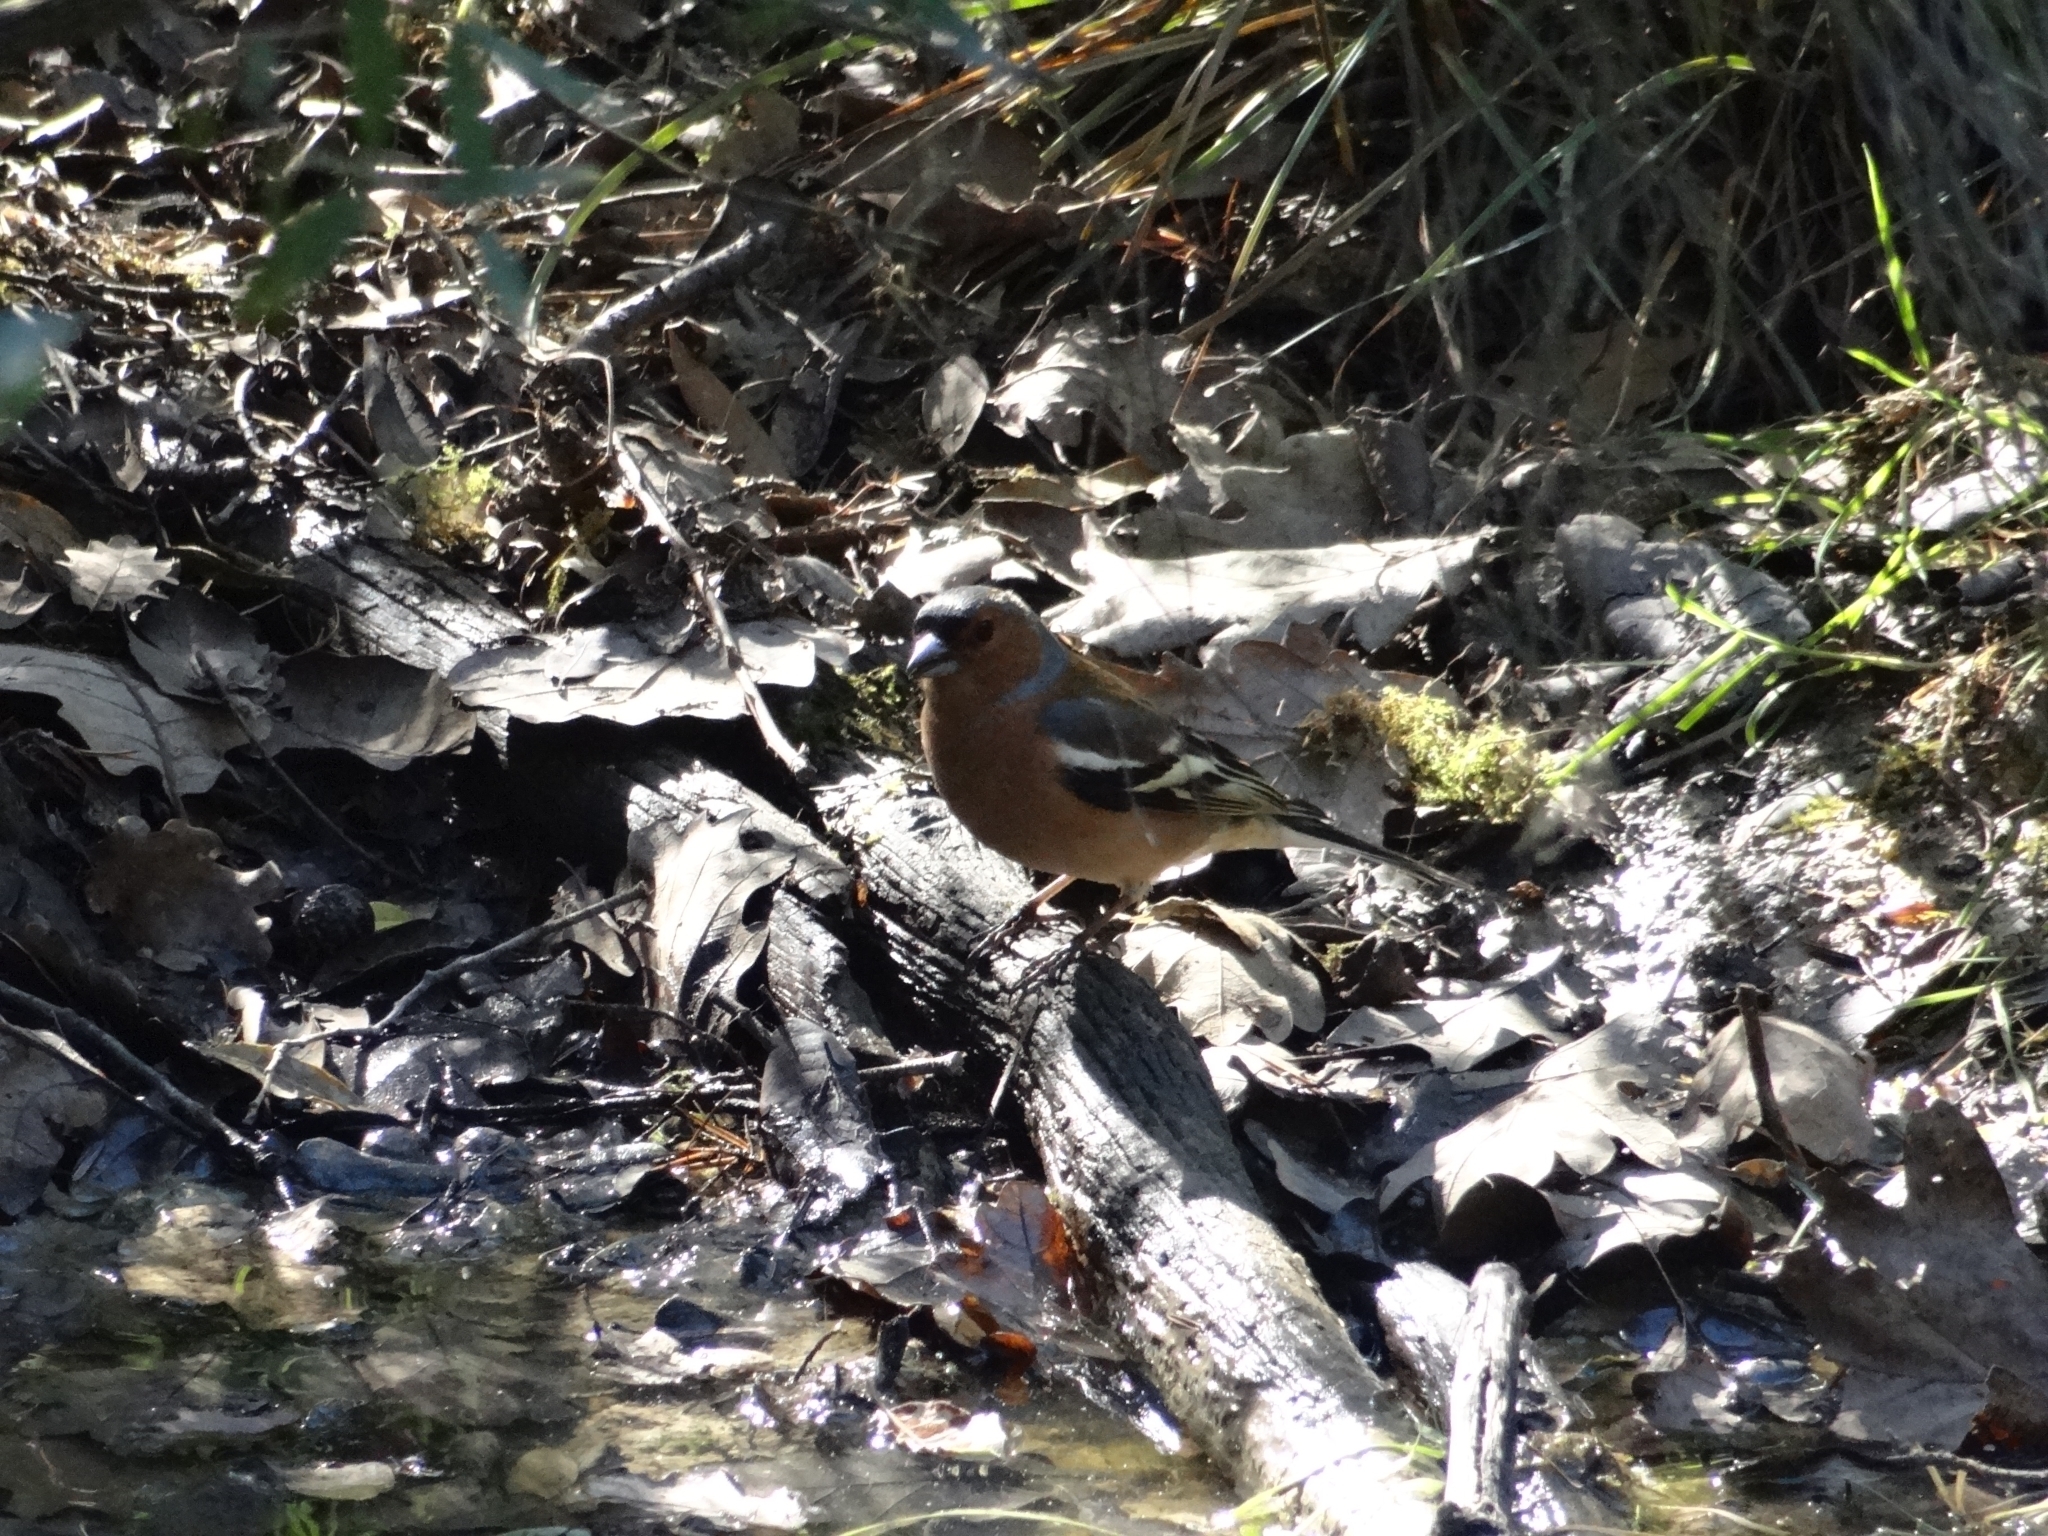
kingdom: Animalia
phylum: Chordata
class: Aves
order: Passeriformes
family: Fringillidae
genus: Fringilla
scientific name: Fringilla coelebs
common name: Common chaffinch
